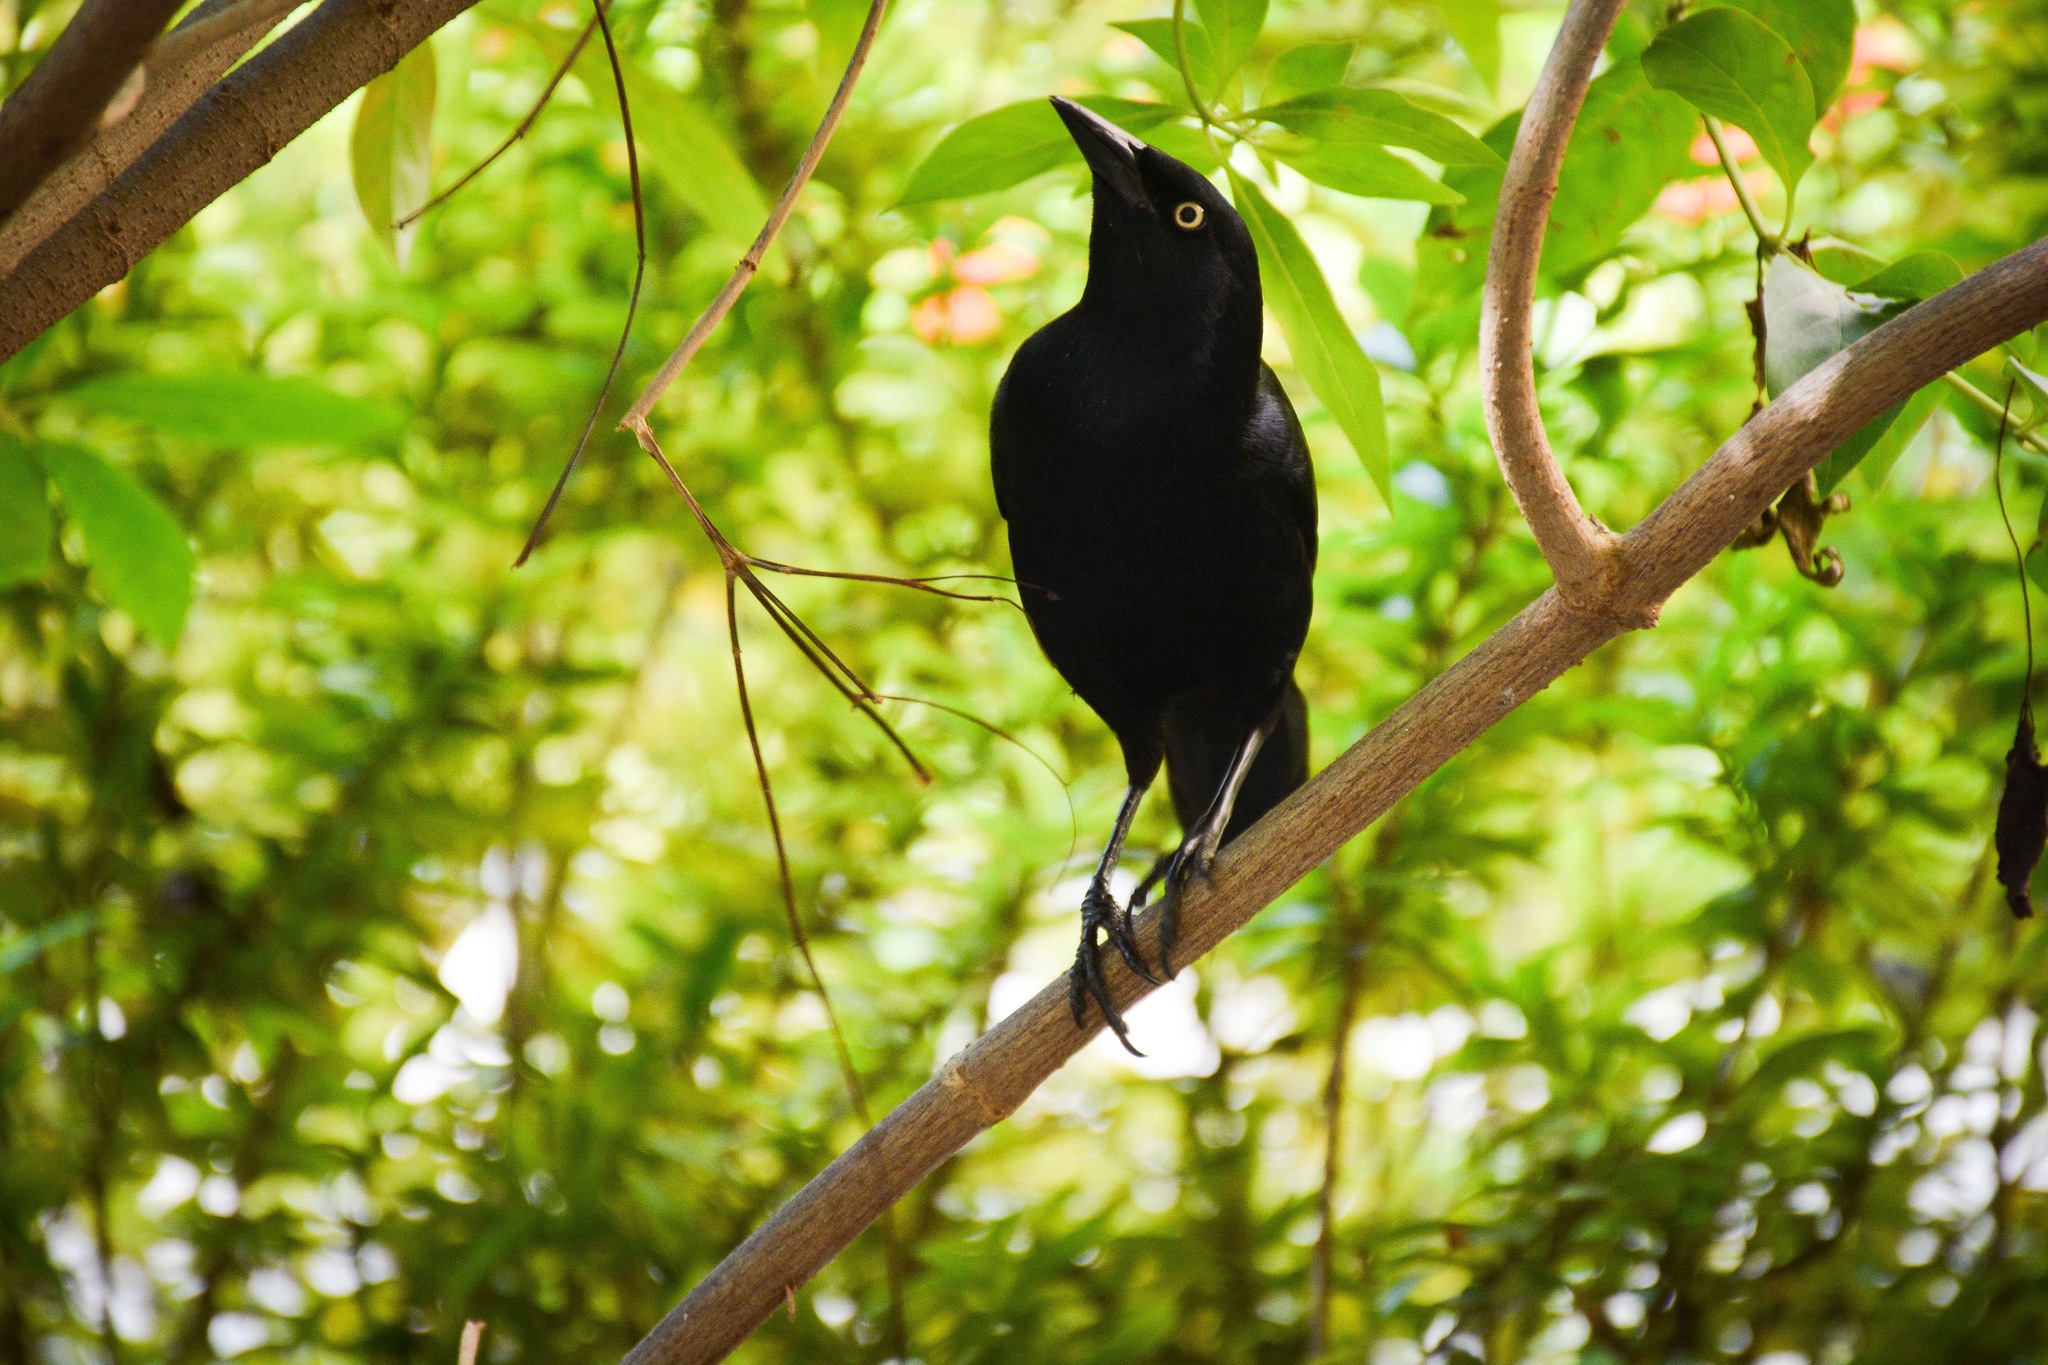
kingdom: Animalia
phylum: Chordata
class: Aves
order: Passeriformes
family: Icteridae
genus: Quiscalus
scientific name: Quiscalus niger
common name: Greater antillean grackle
